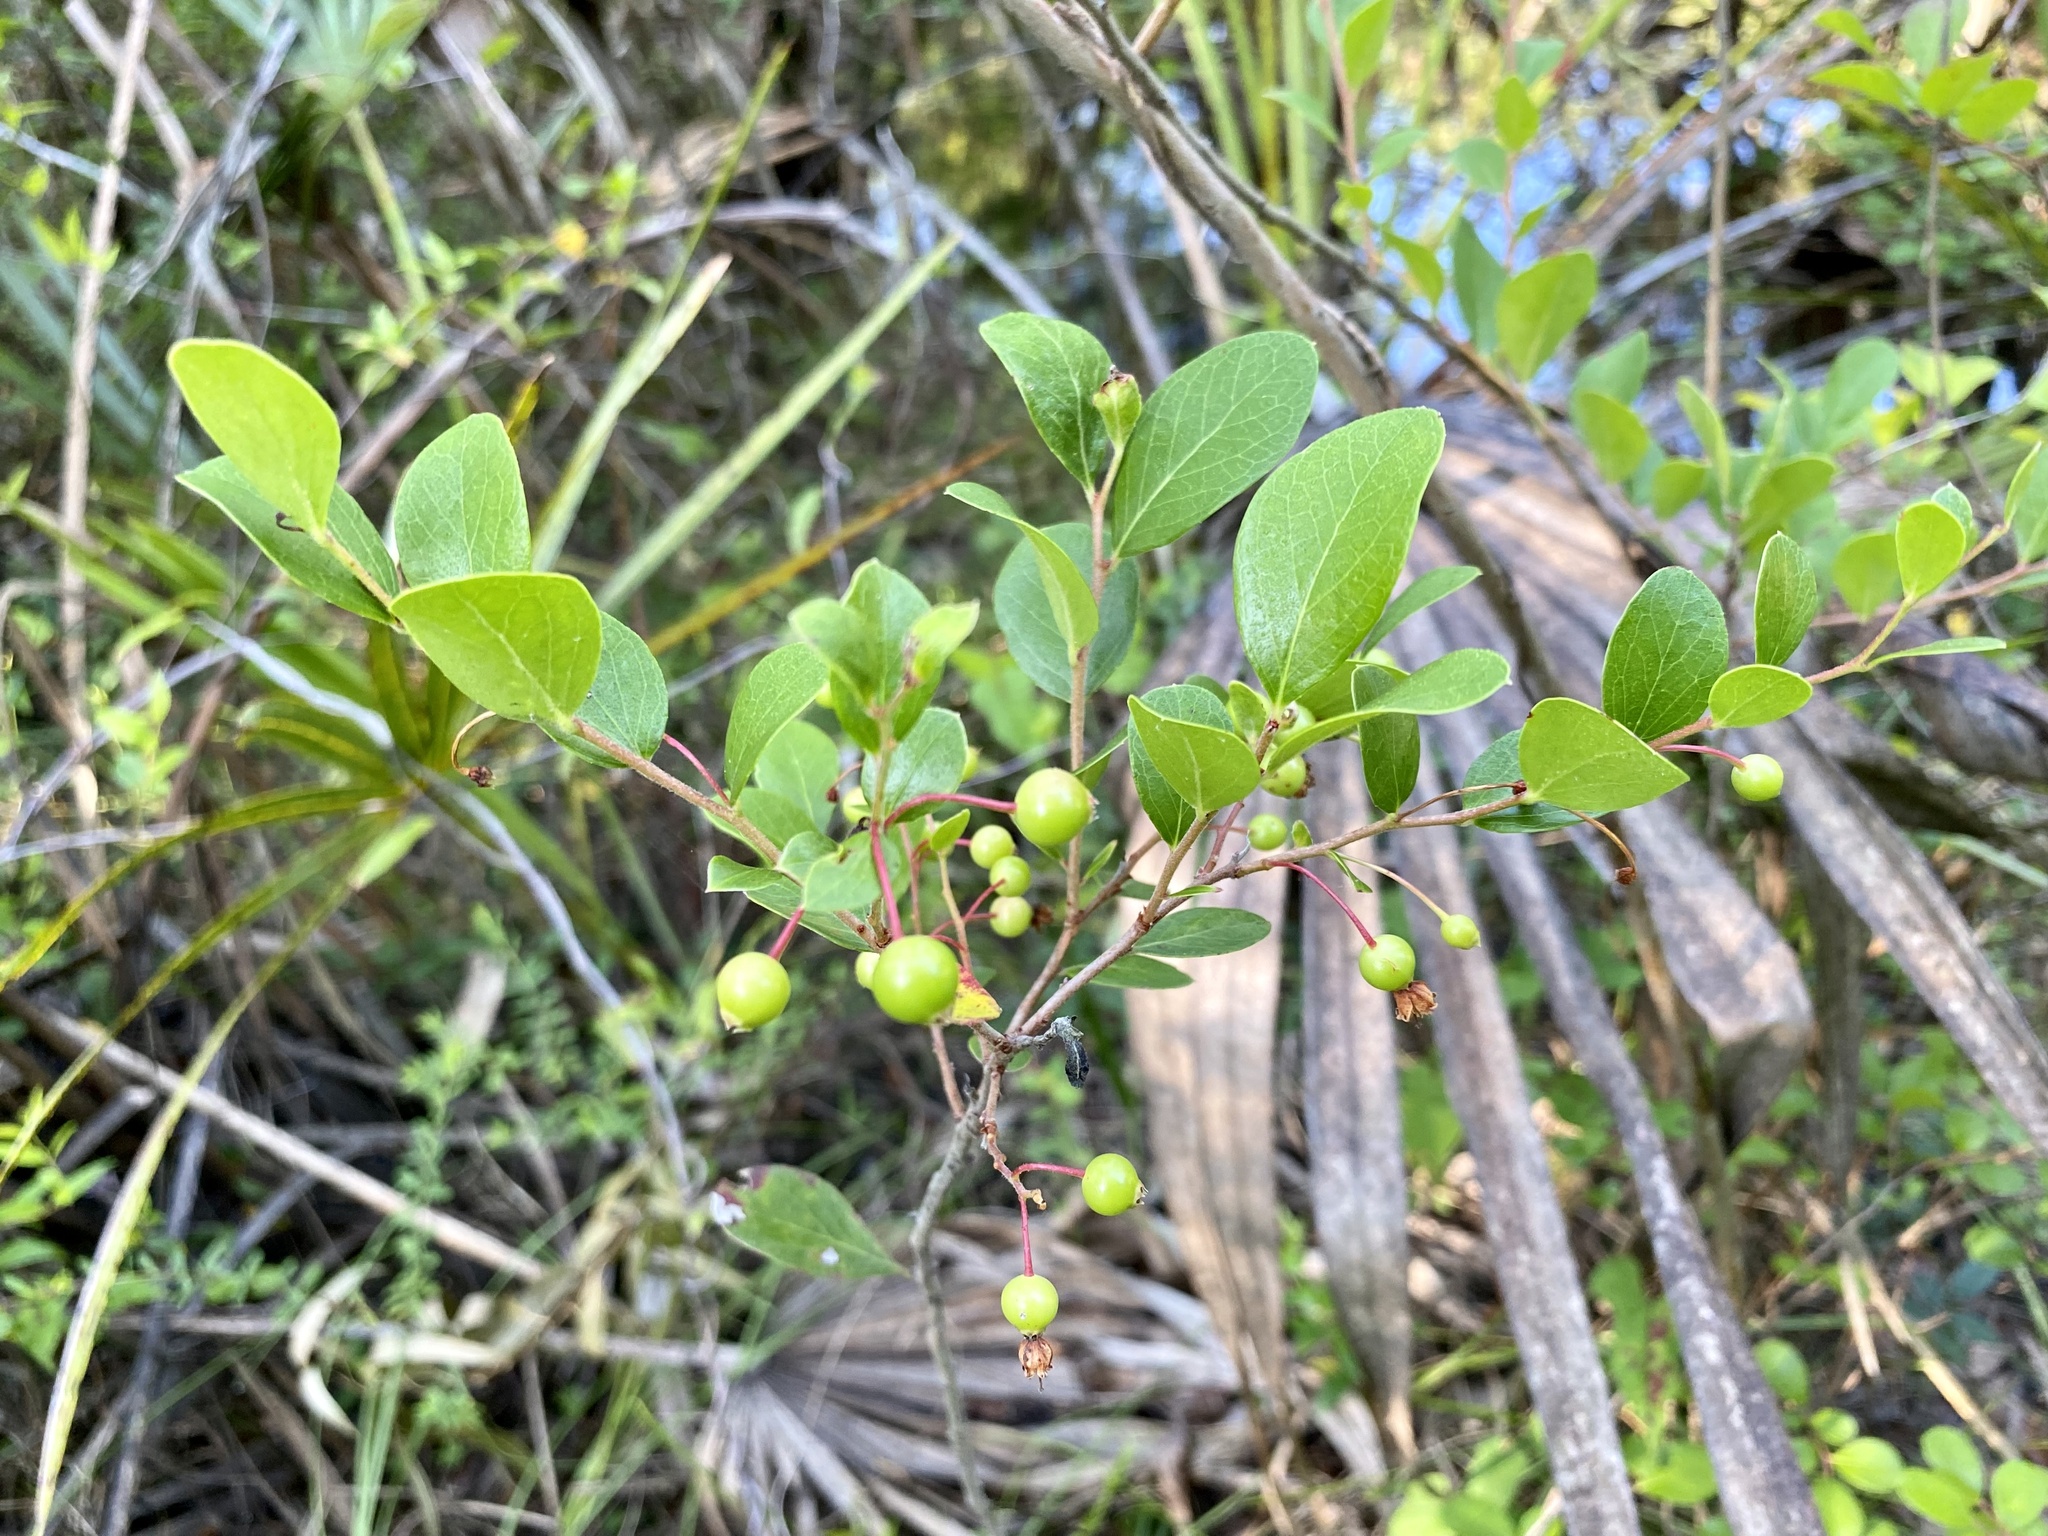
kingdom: Plantae
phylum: Tracheophyta
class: Magnoliopsida
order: Ericales
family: Ericaceae
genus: Vaccinium
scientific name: Vaccinium arboreum
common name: Farkleberry
